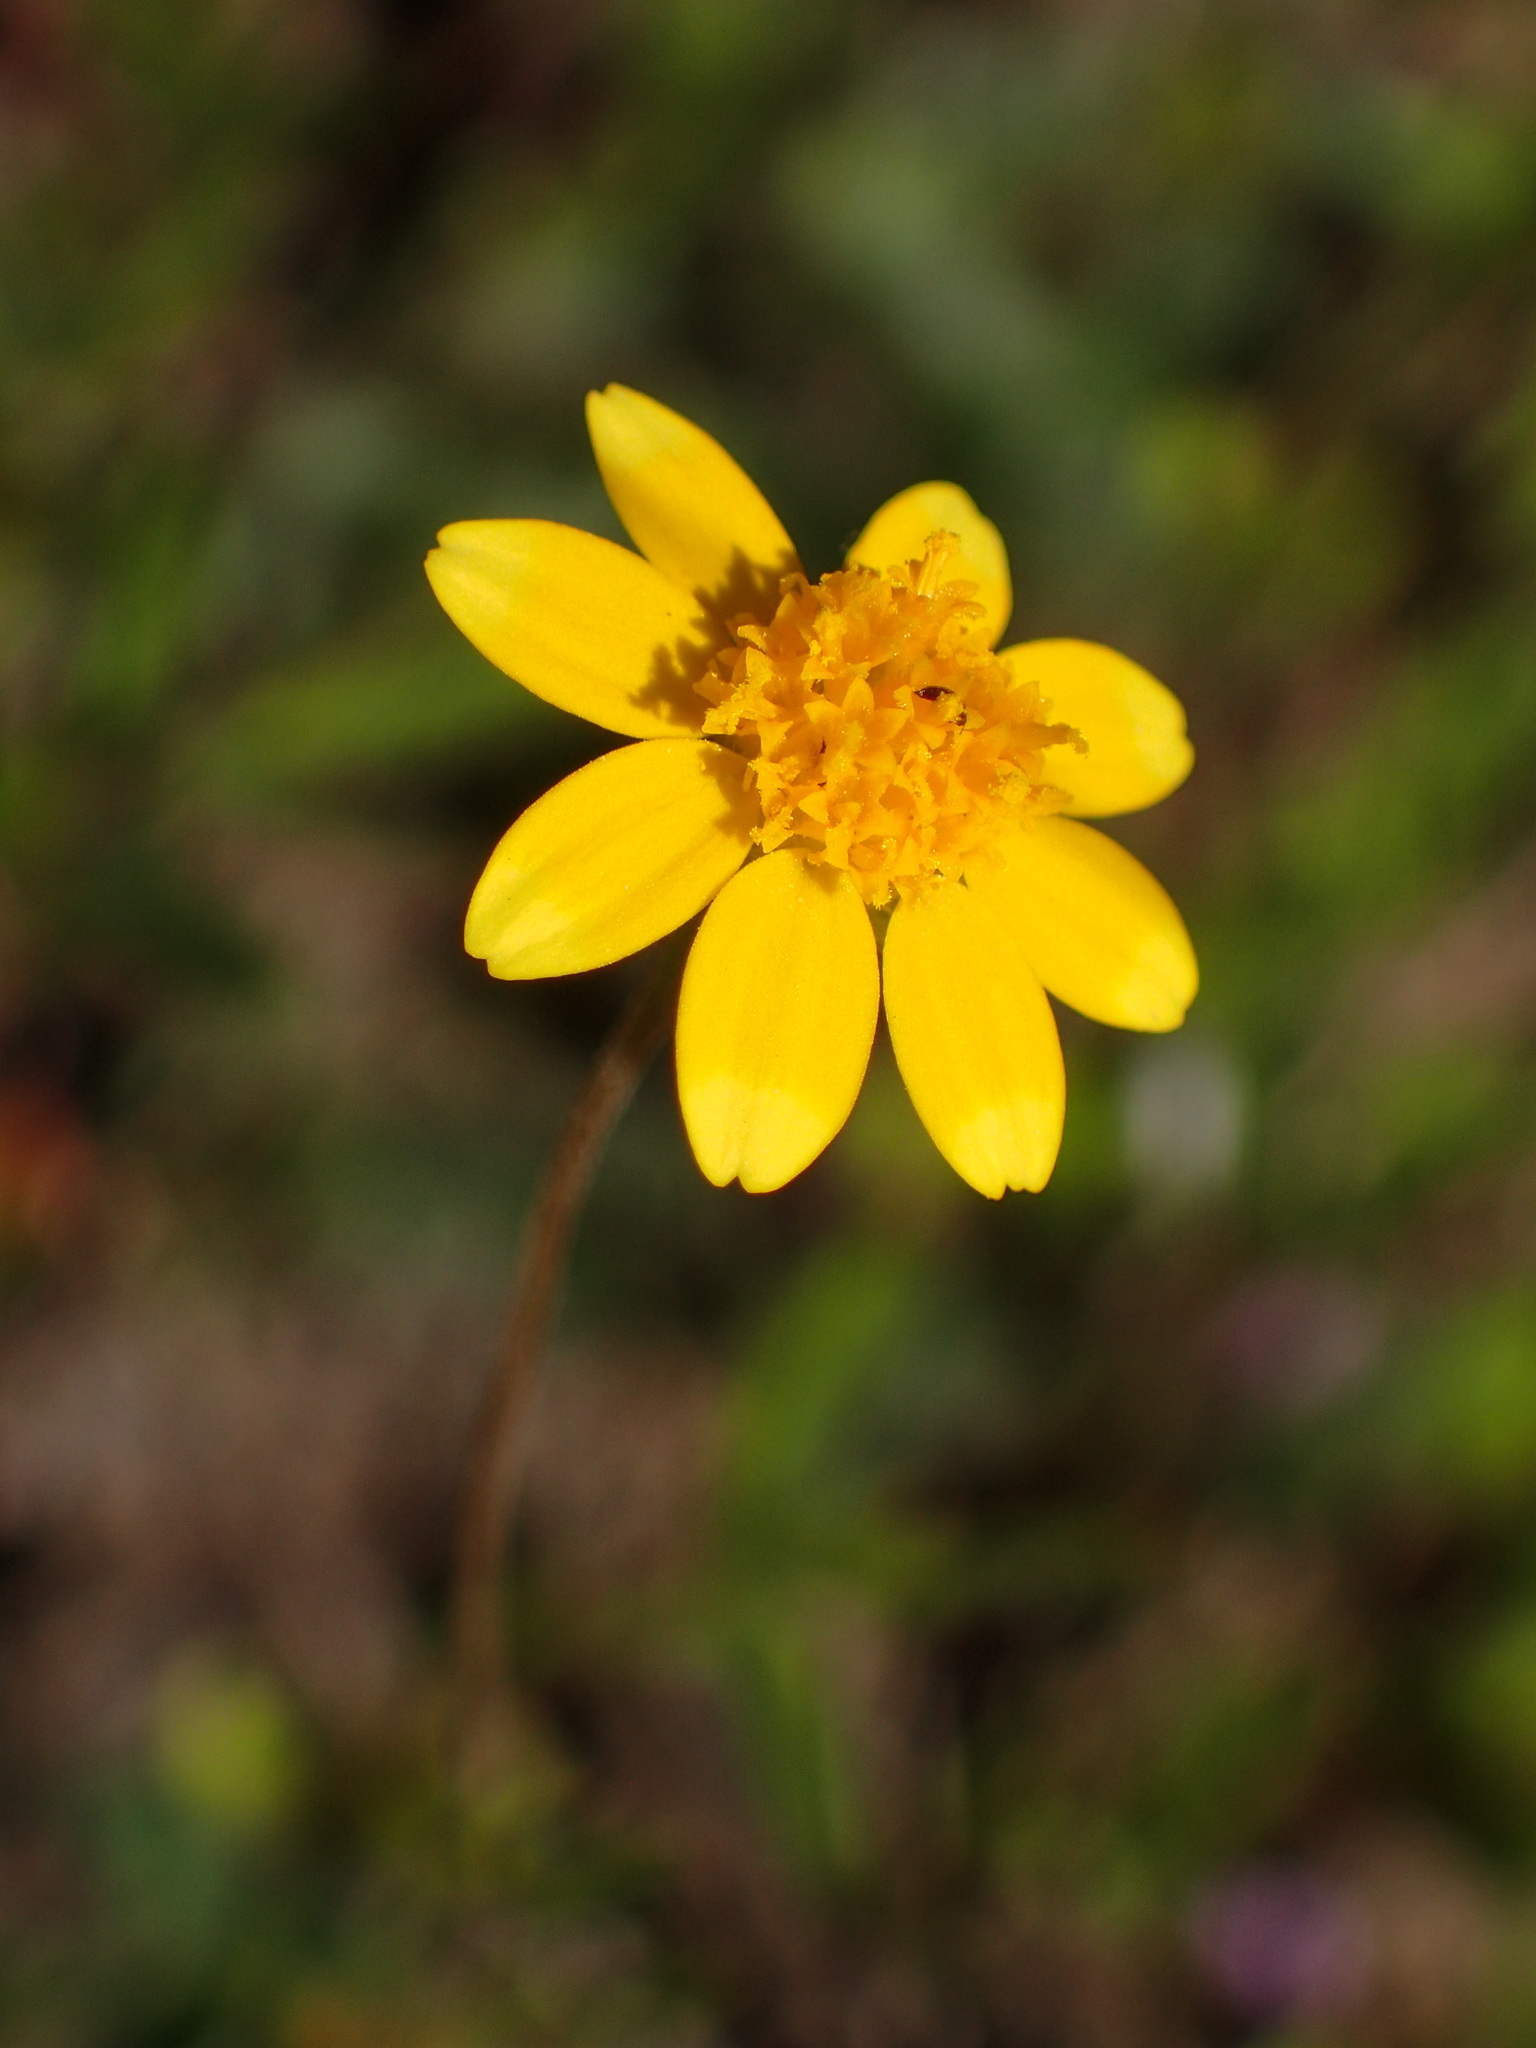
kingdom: Plantae
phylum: Tracheophyta
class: Magnoliopsida
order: Asterales
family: Asteraceae
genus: Lasthenia
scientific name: Lasthenia gracilis
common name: Common goldfields
